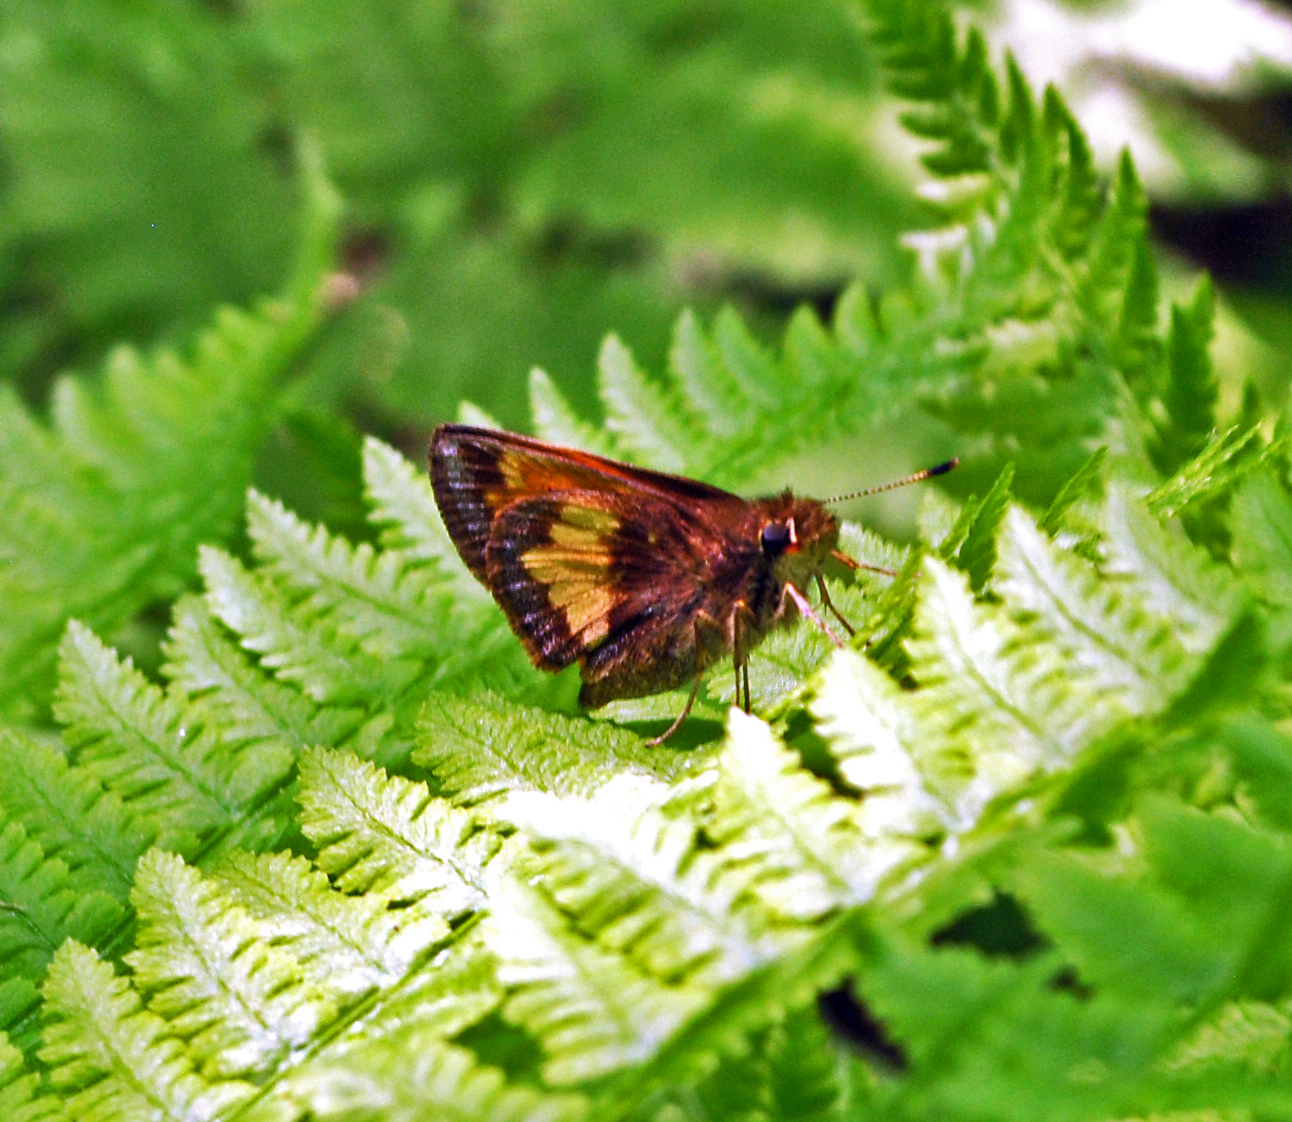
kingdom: Animalia
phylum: Arthropoda
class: Insecta
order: Lepidoptera
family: Hesperiidae
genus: Lon
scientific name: Lon hobomok
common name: Hobomok skipper
